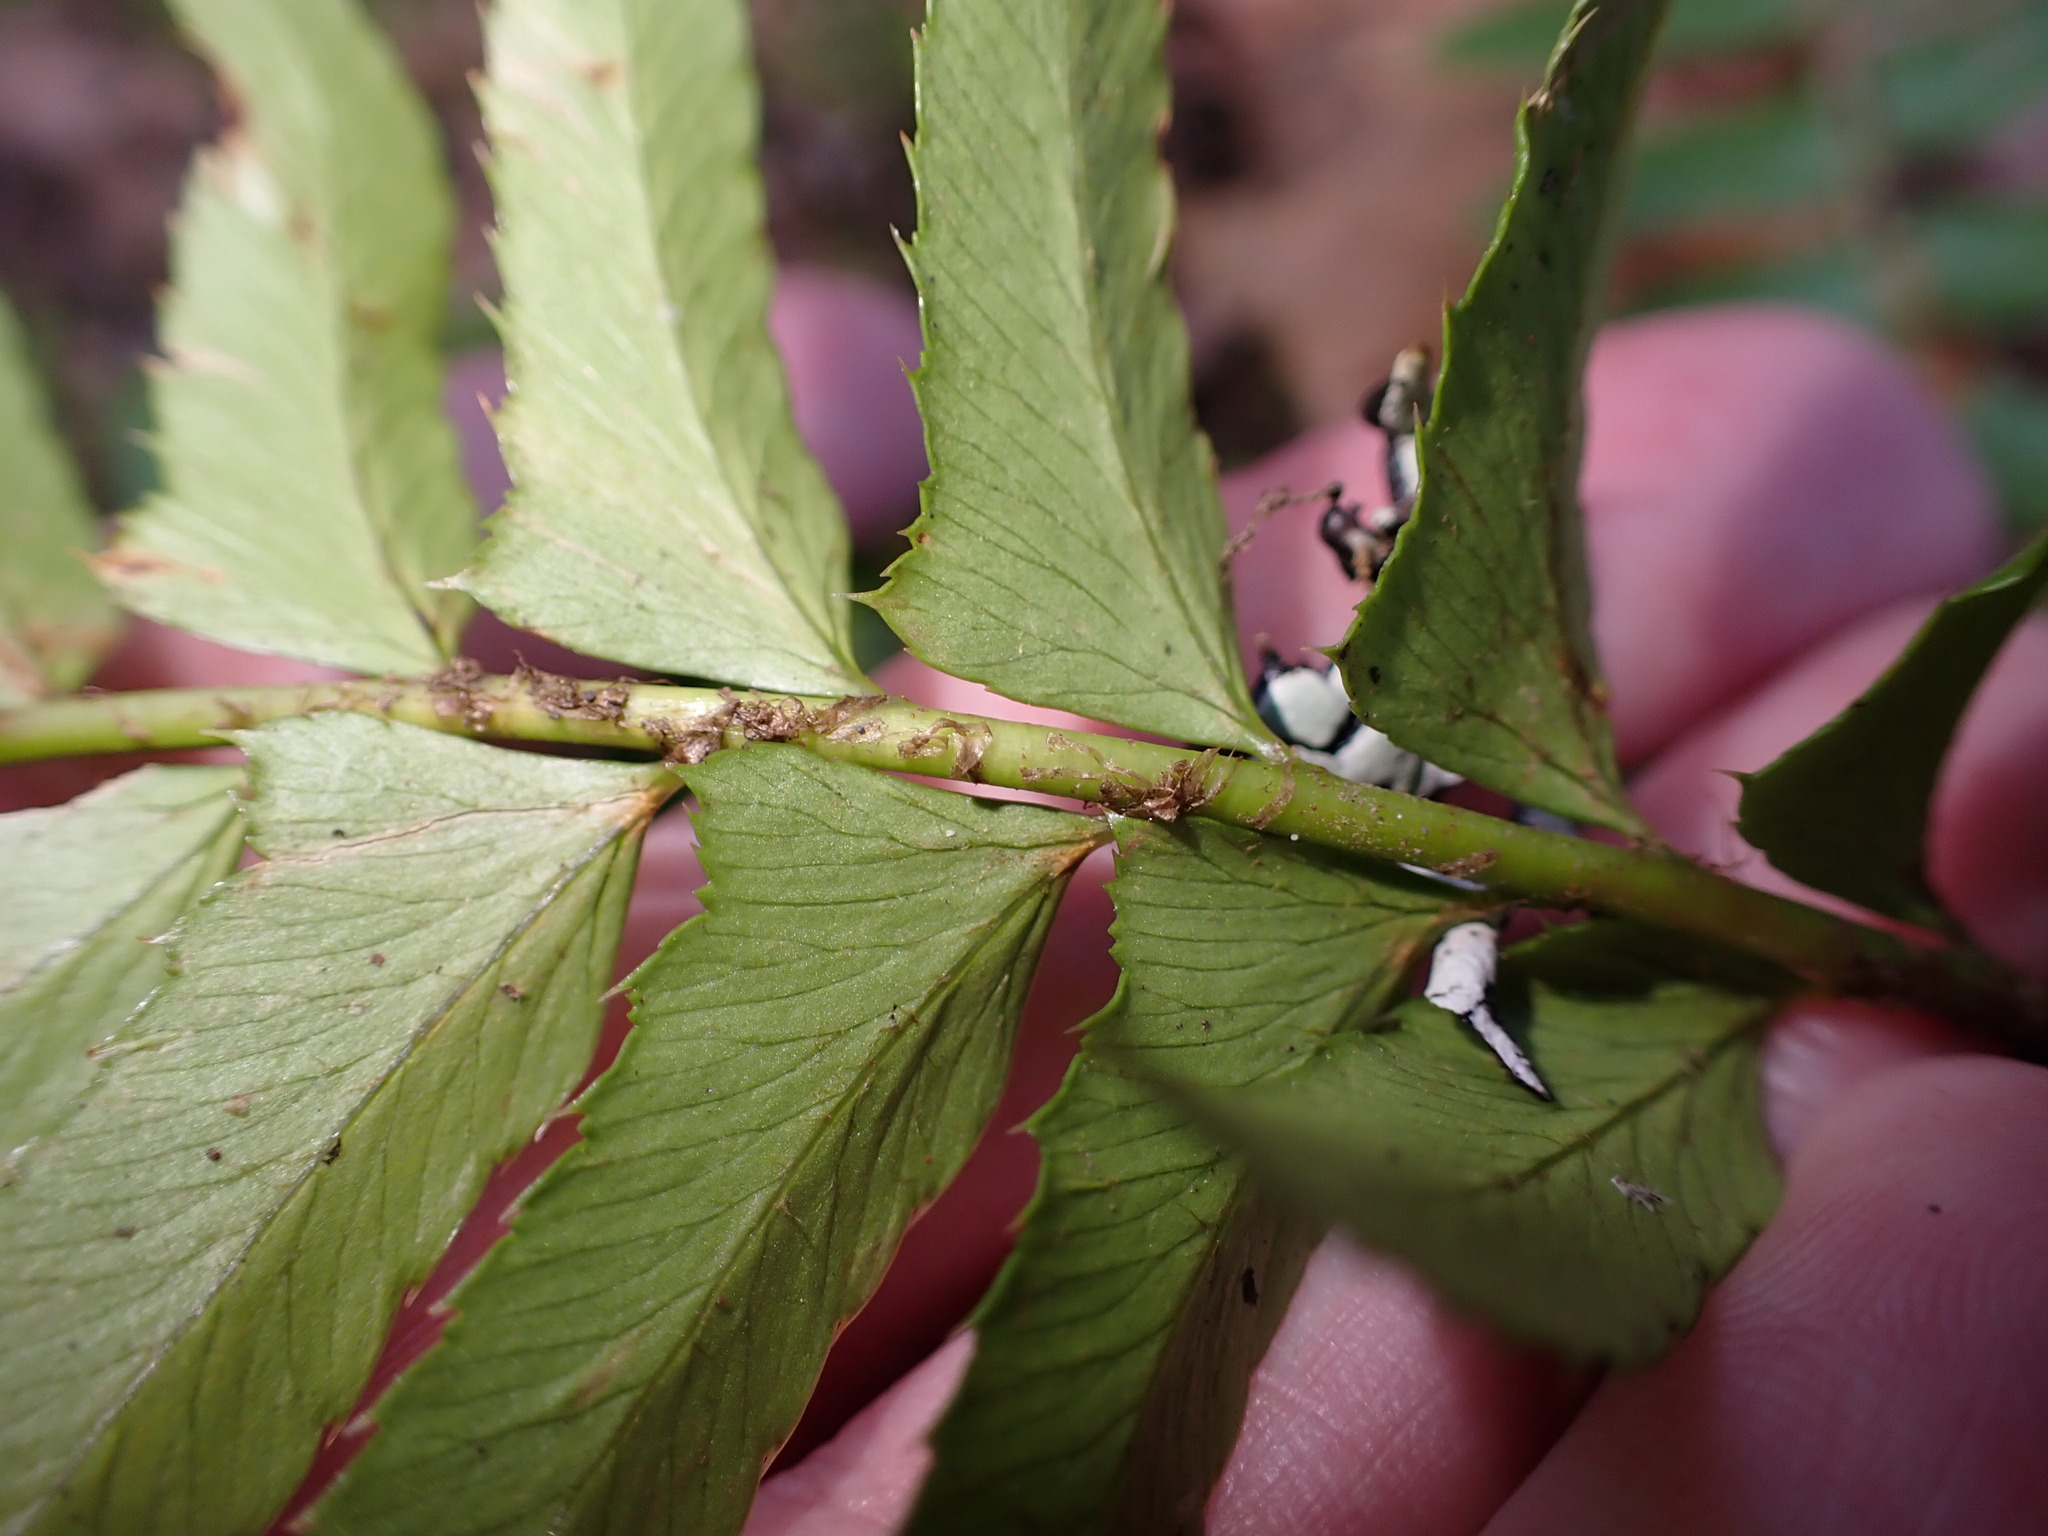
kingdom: Plantae
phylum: Tracheophyta
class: Polypodiopsida
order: Polypodiales
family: Dryopteridaceae
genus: Polystichum
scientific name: Polystichum munitum
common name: Western sword-fern
